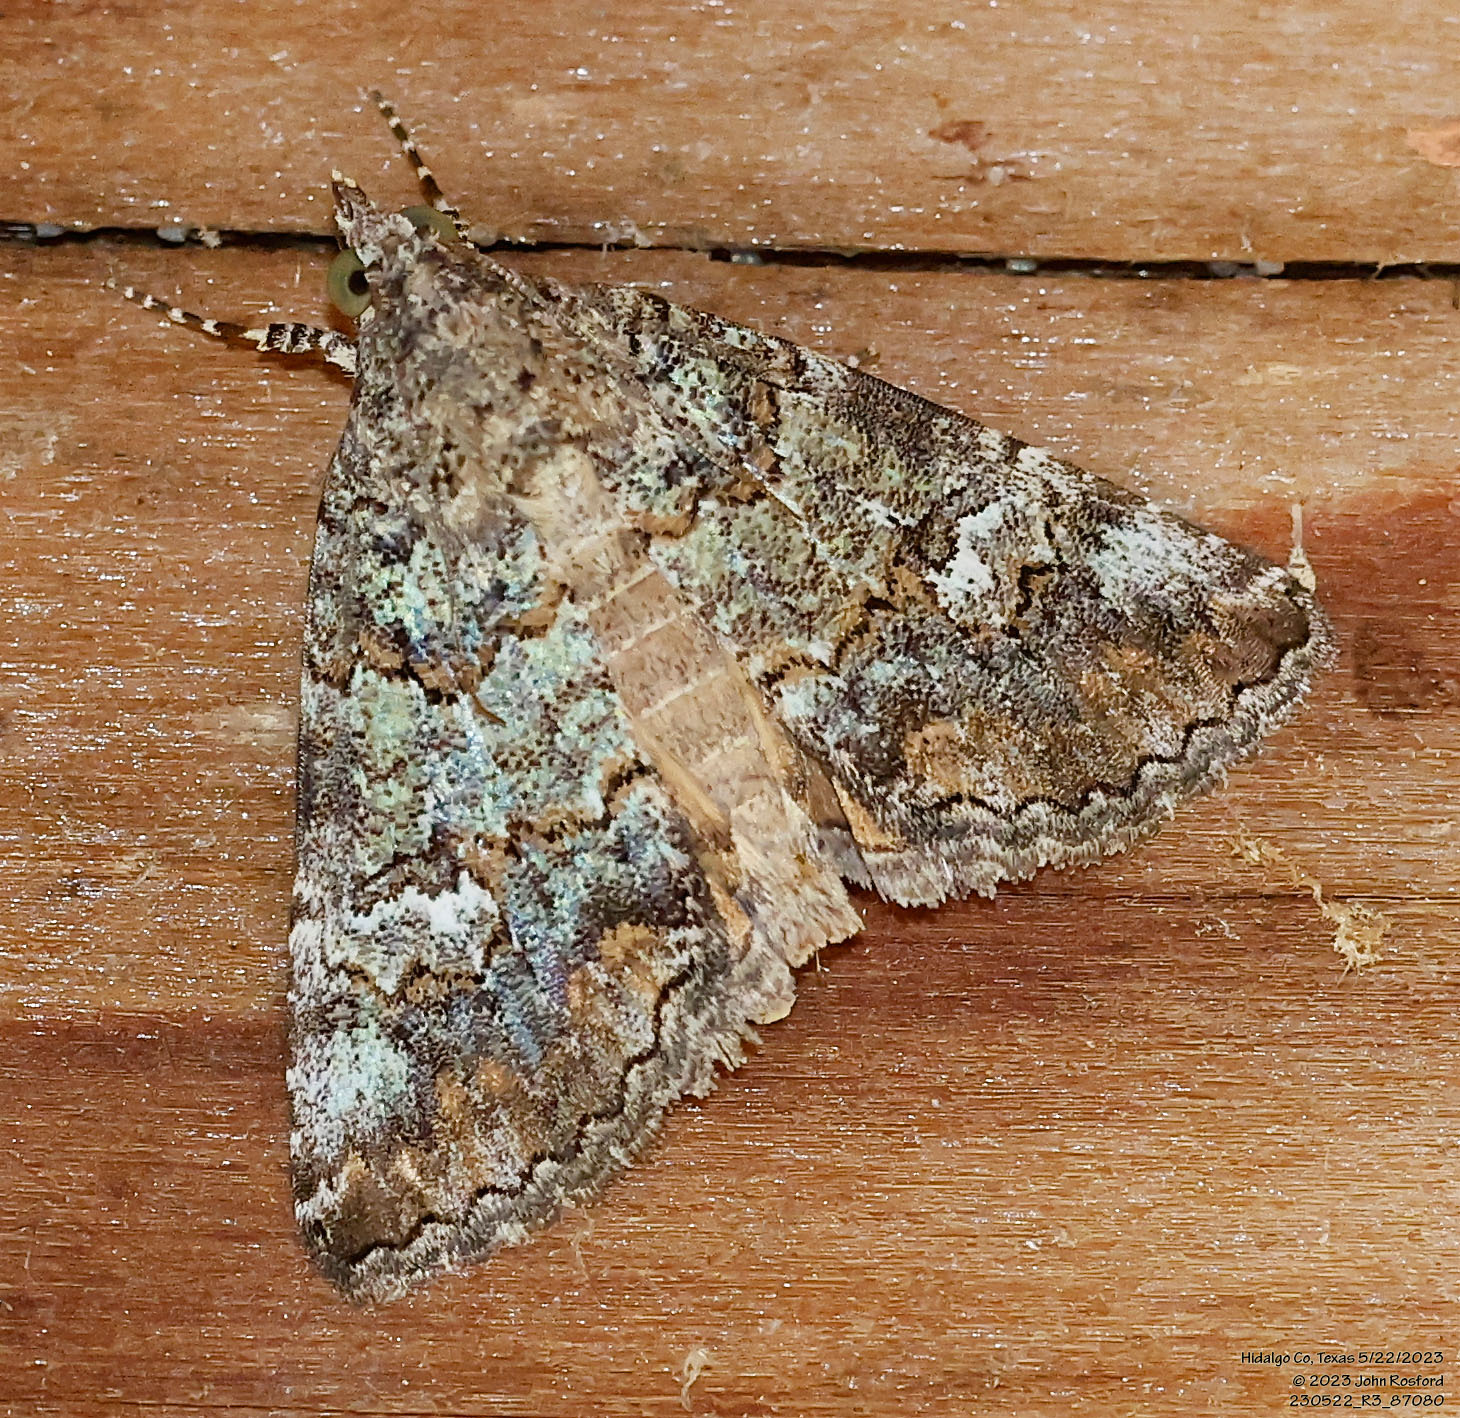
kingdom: Animalia
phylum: Arthropoda
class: Insecta
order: Lepidoptera
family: Erebidae
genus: Eubolina
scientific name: Eubolina impartialis
